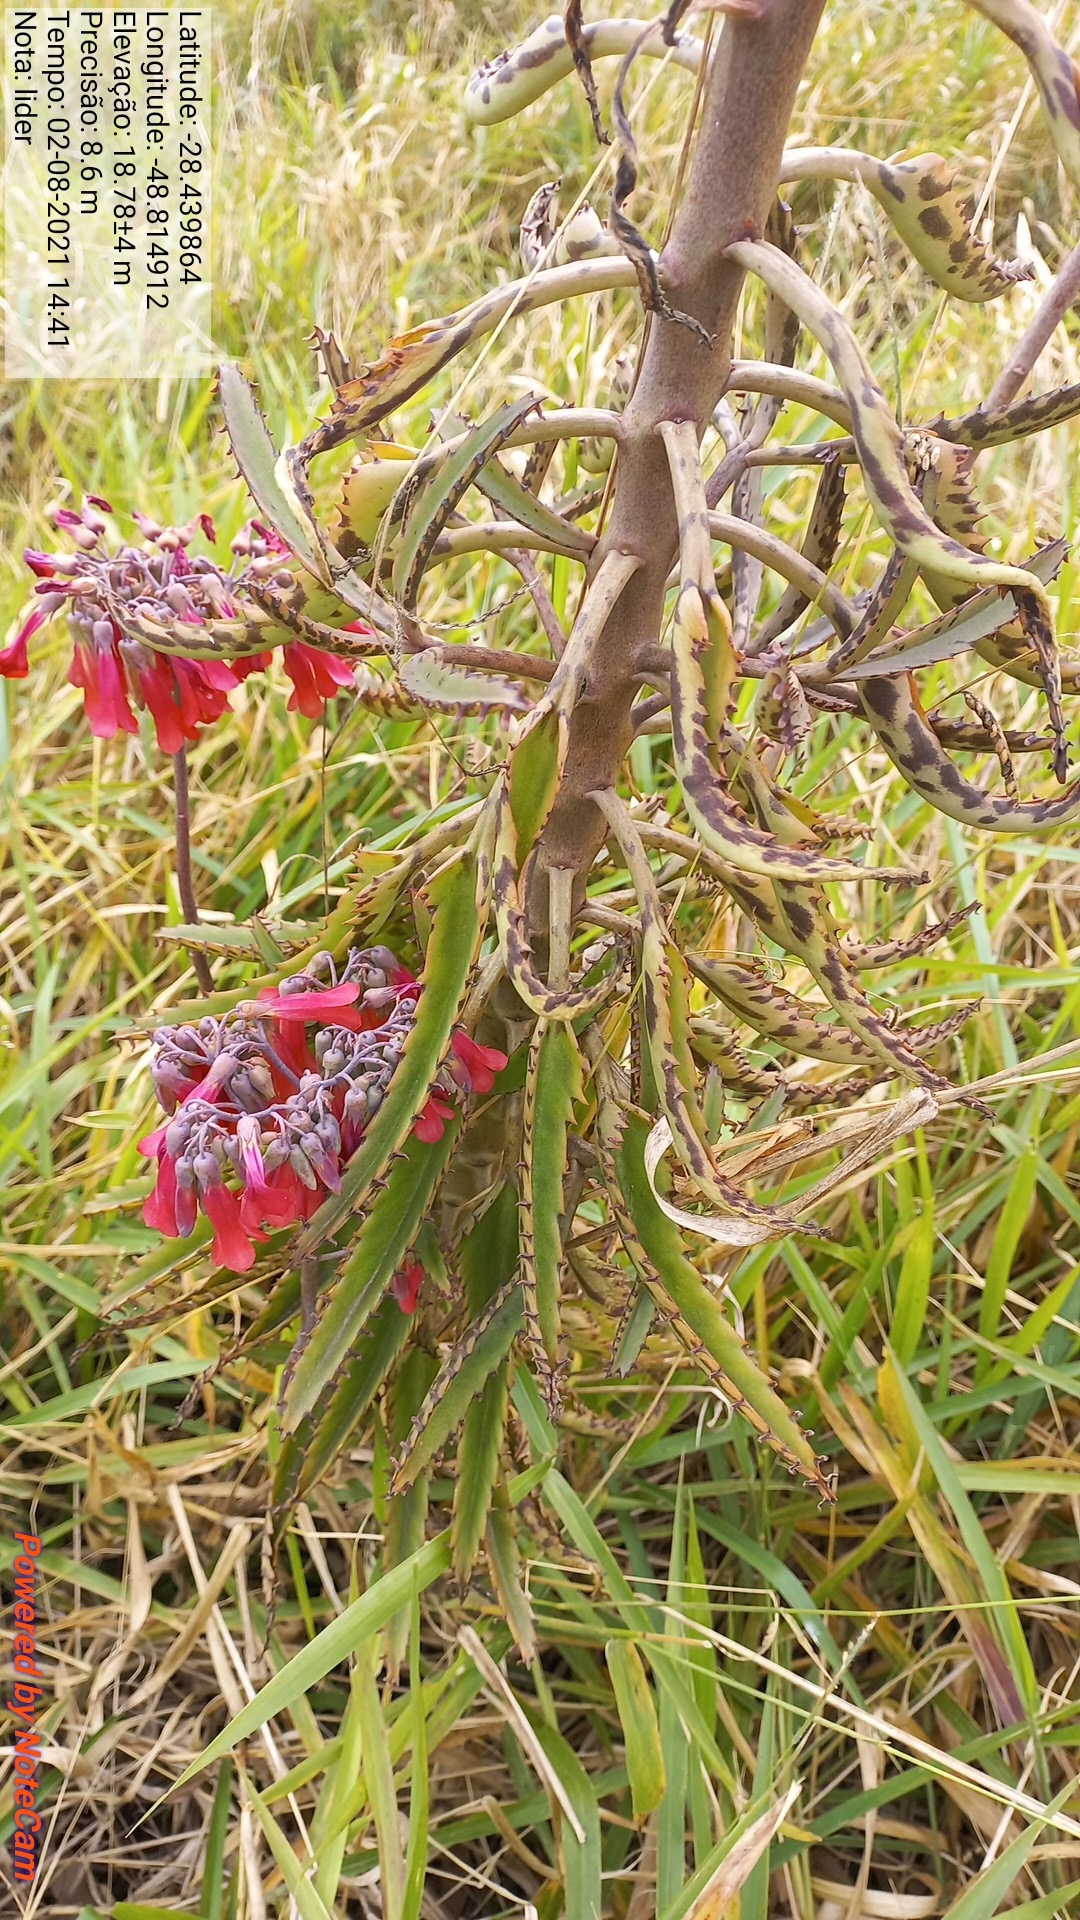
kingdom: Plantae
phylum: Tracheophyta
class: Magnoliopsida
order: Saxifragales
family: Crassulaceae
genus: Kalanchoe
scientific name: Kalanchoe houghtonii
